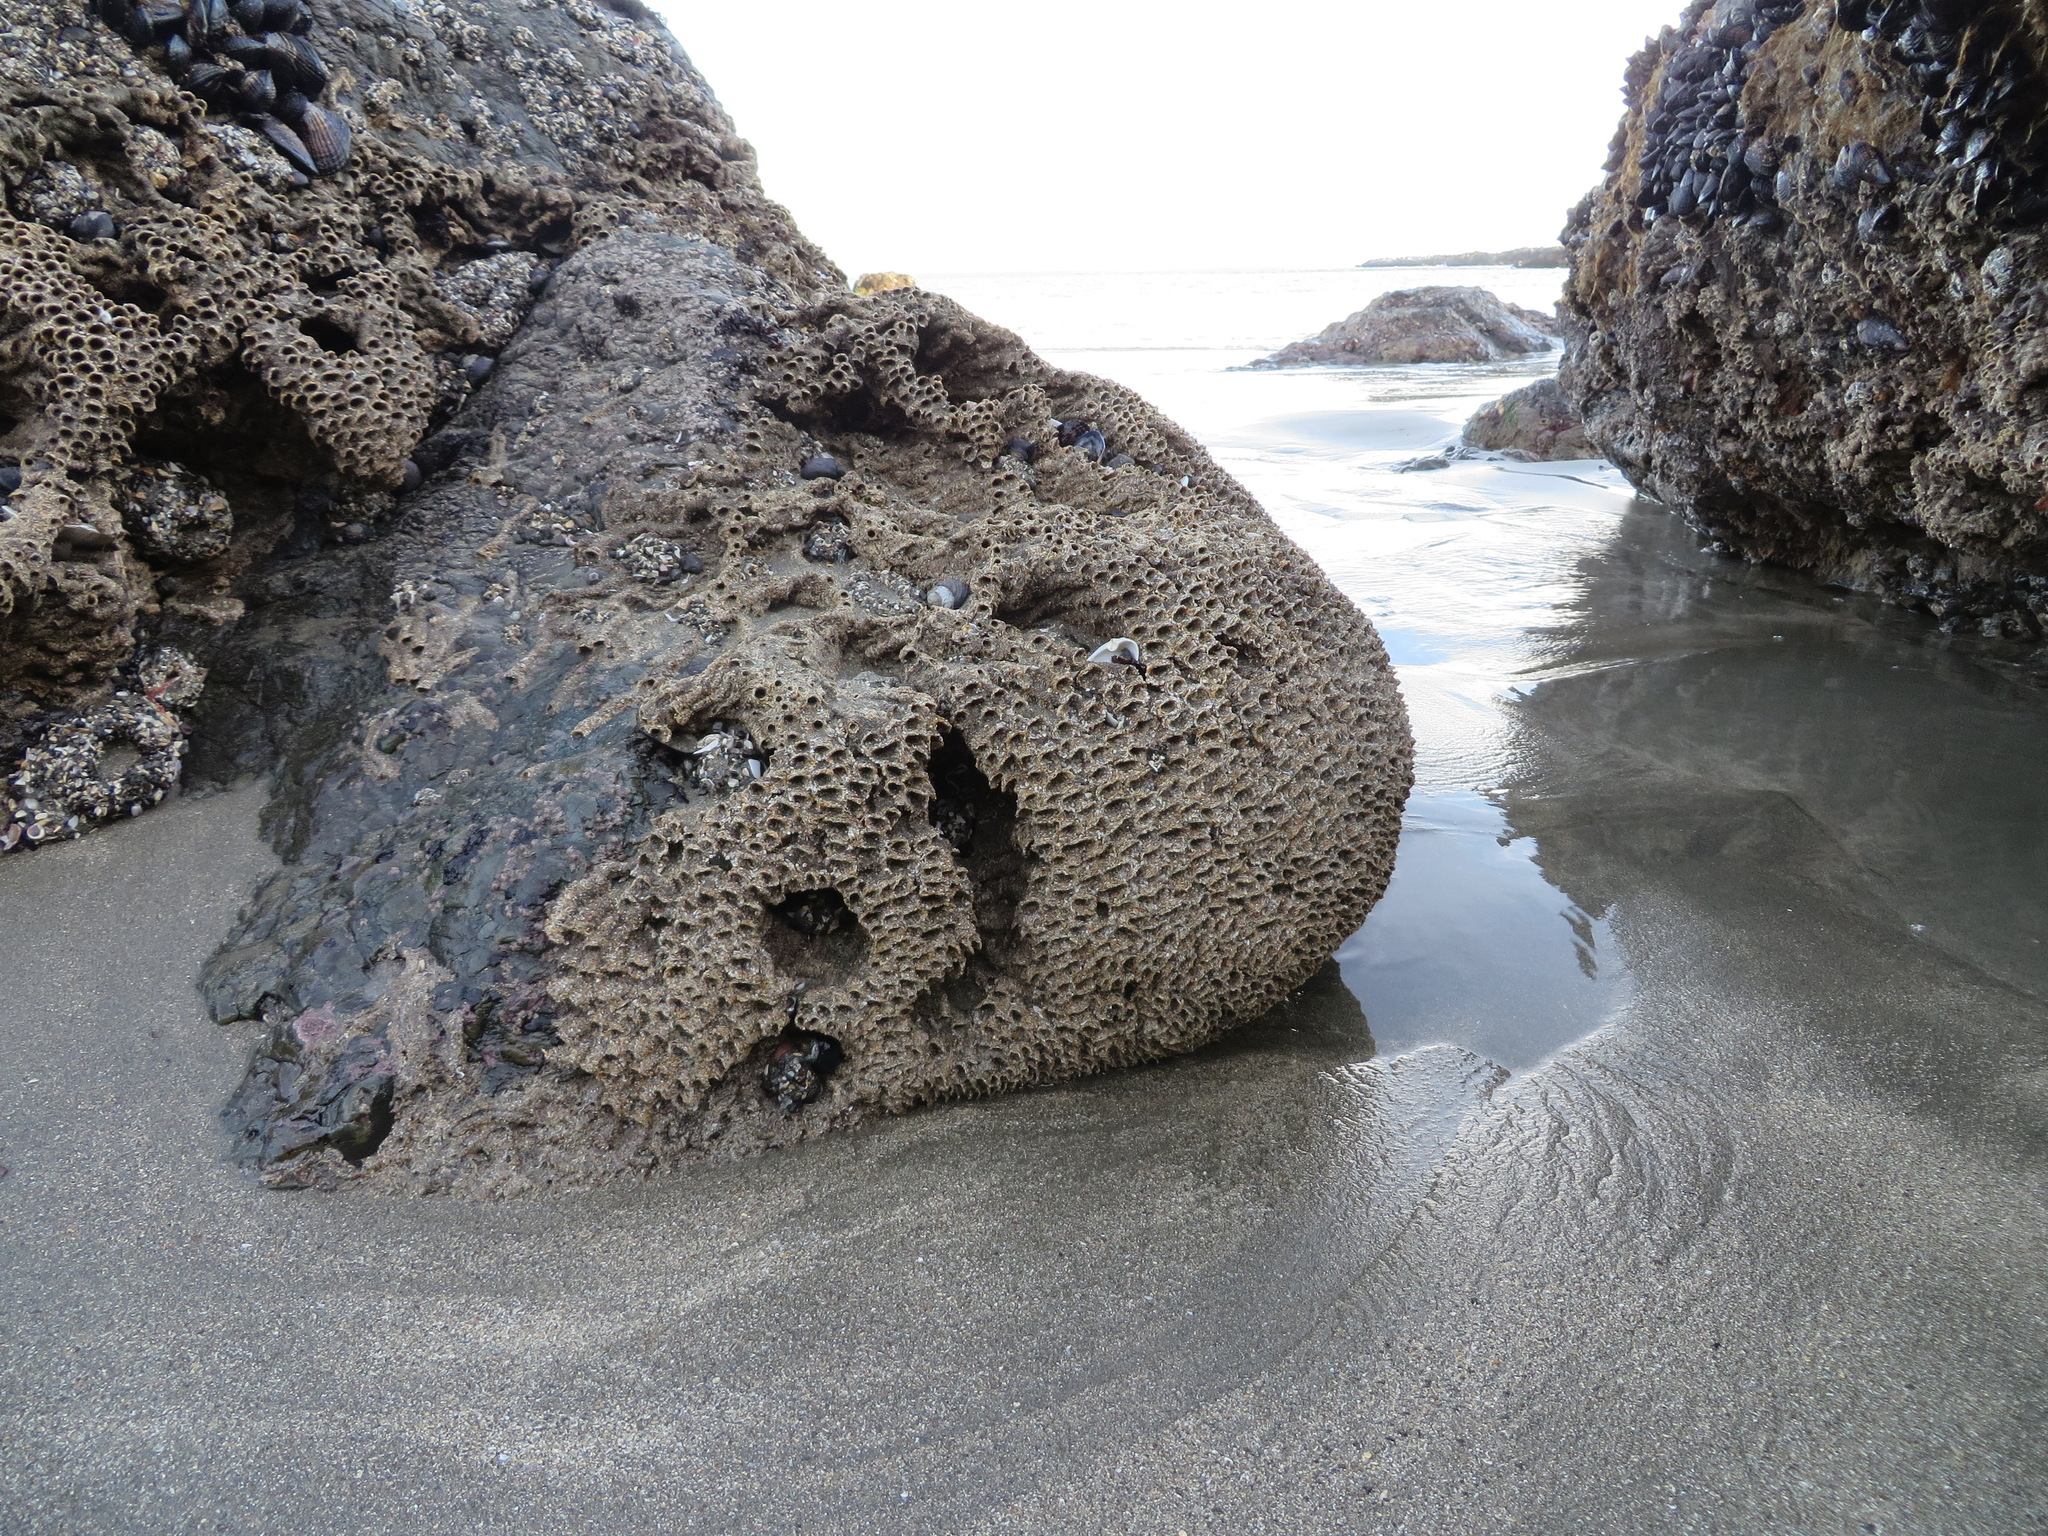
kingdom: Animalia
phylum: Annelida
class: Polychaeta
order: Sabellida
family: Sabellariidae
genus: Phragmatopoma
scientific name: Phragmatopoma californica
